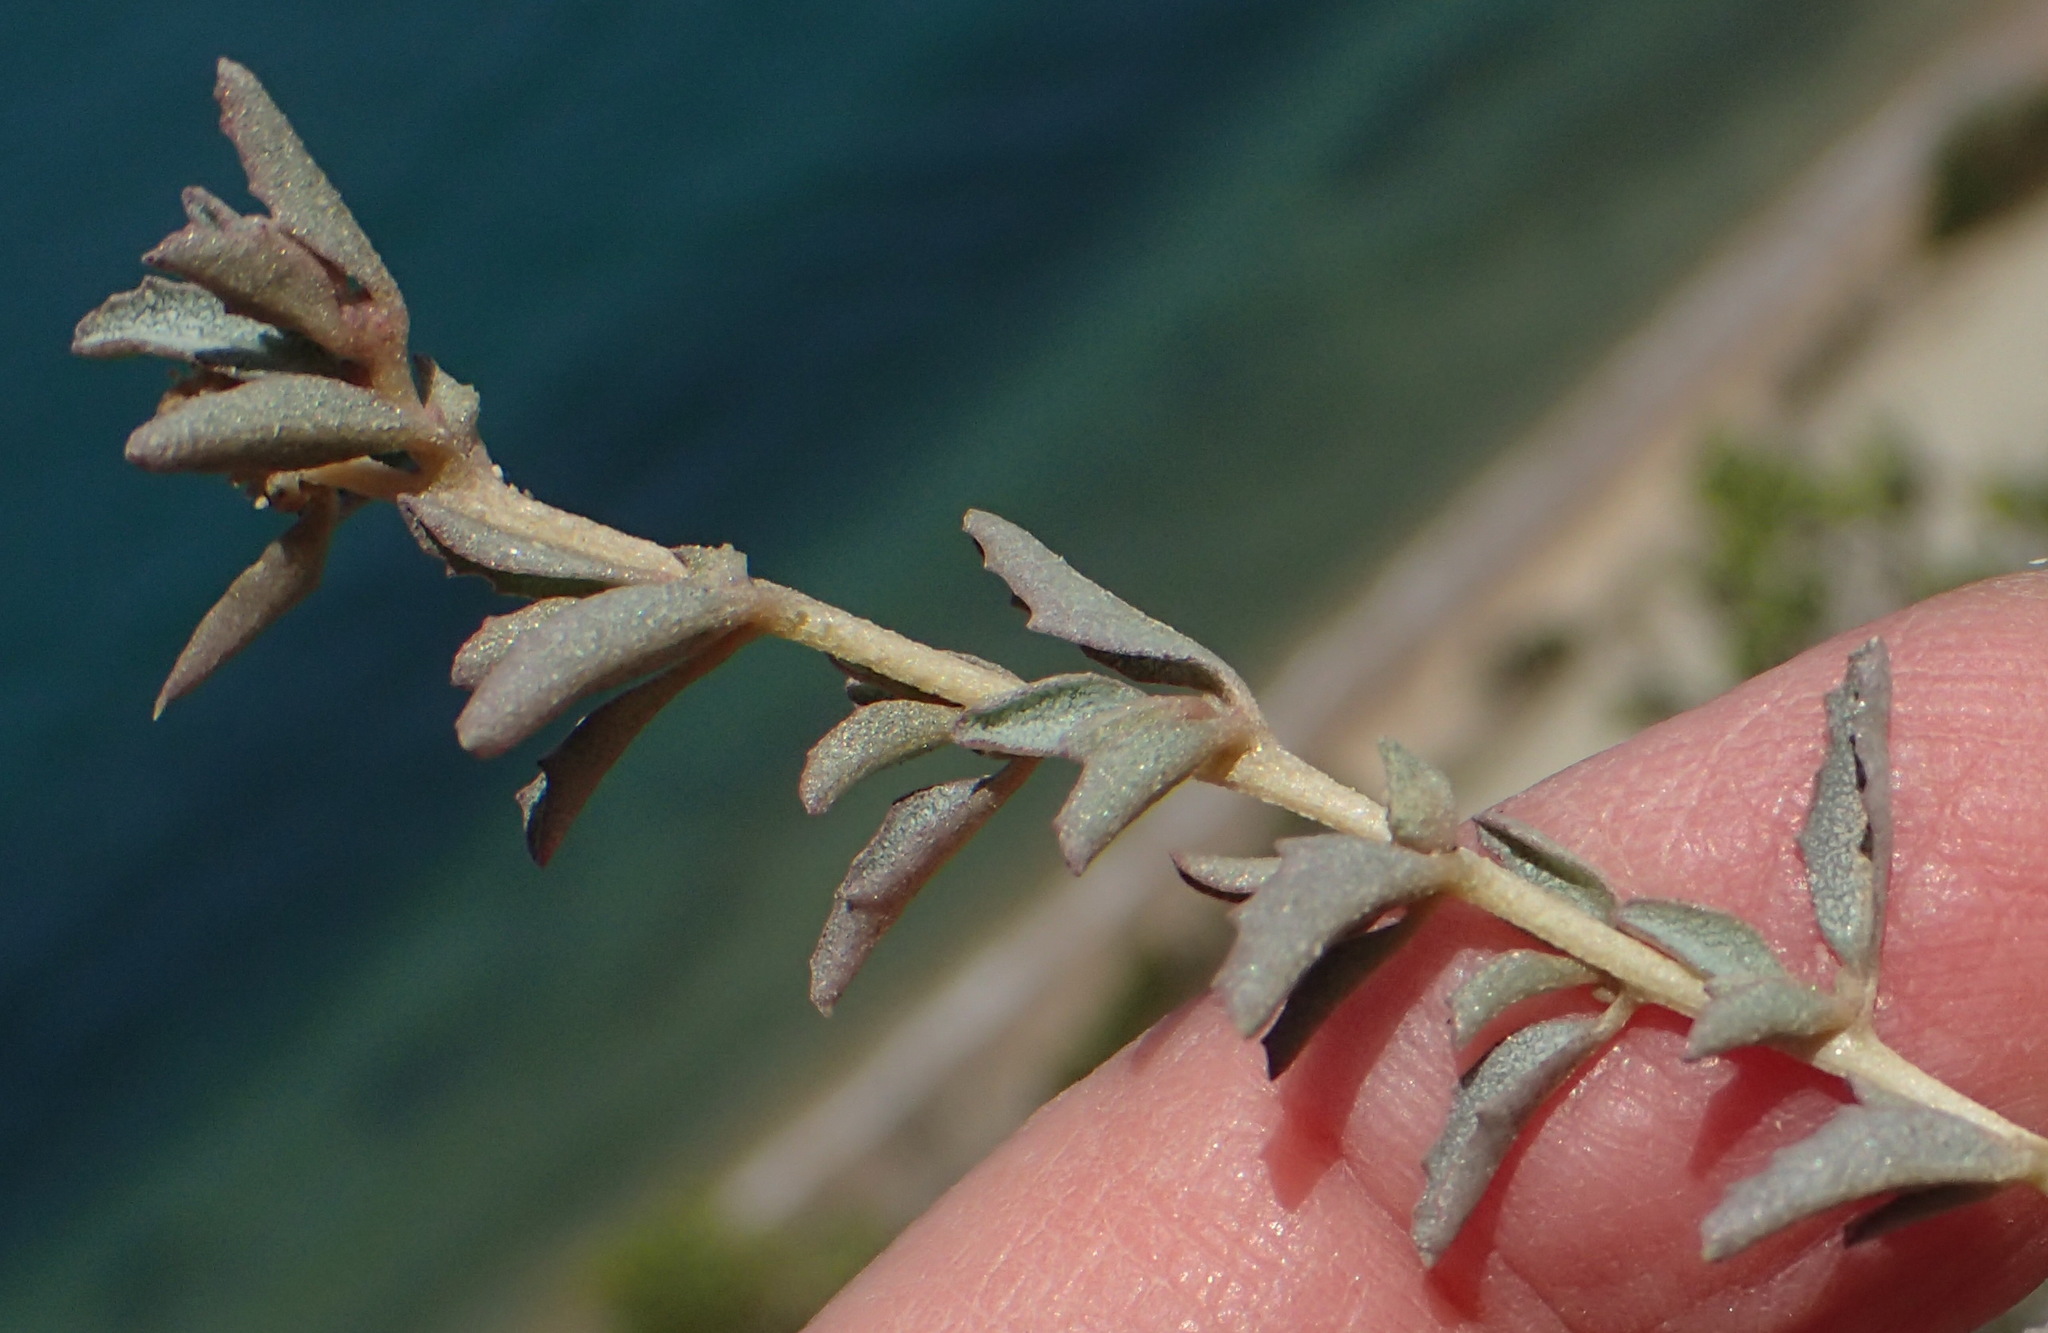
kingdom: Plantae
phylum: Tracheophyta
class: Magnoliopsida
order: Caryophyllales
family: Amaranthaceae
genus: Atriplex
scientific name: Atriplex semibaccata
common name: Australian saltbush
